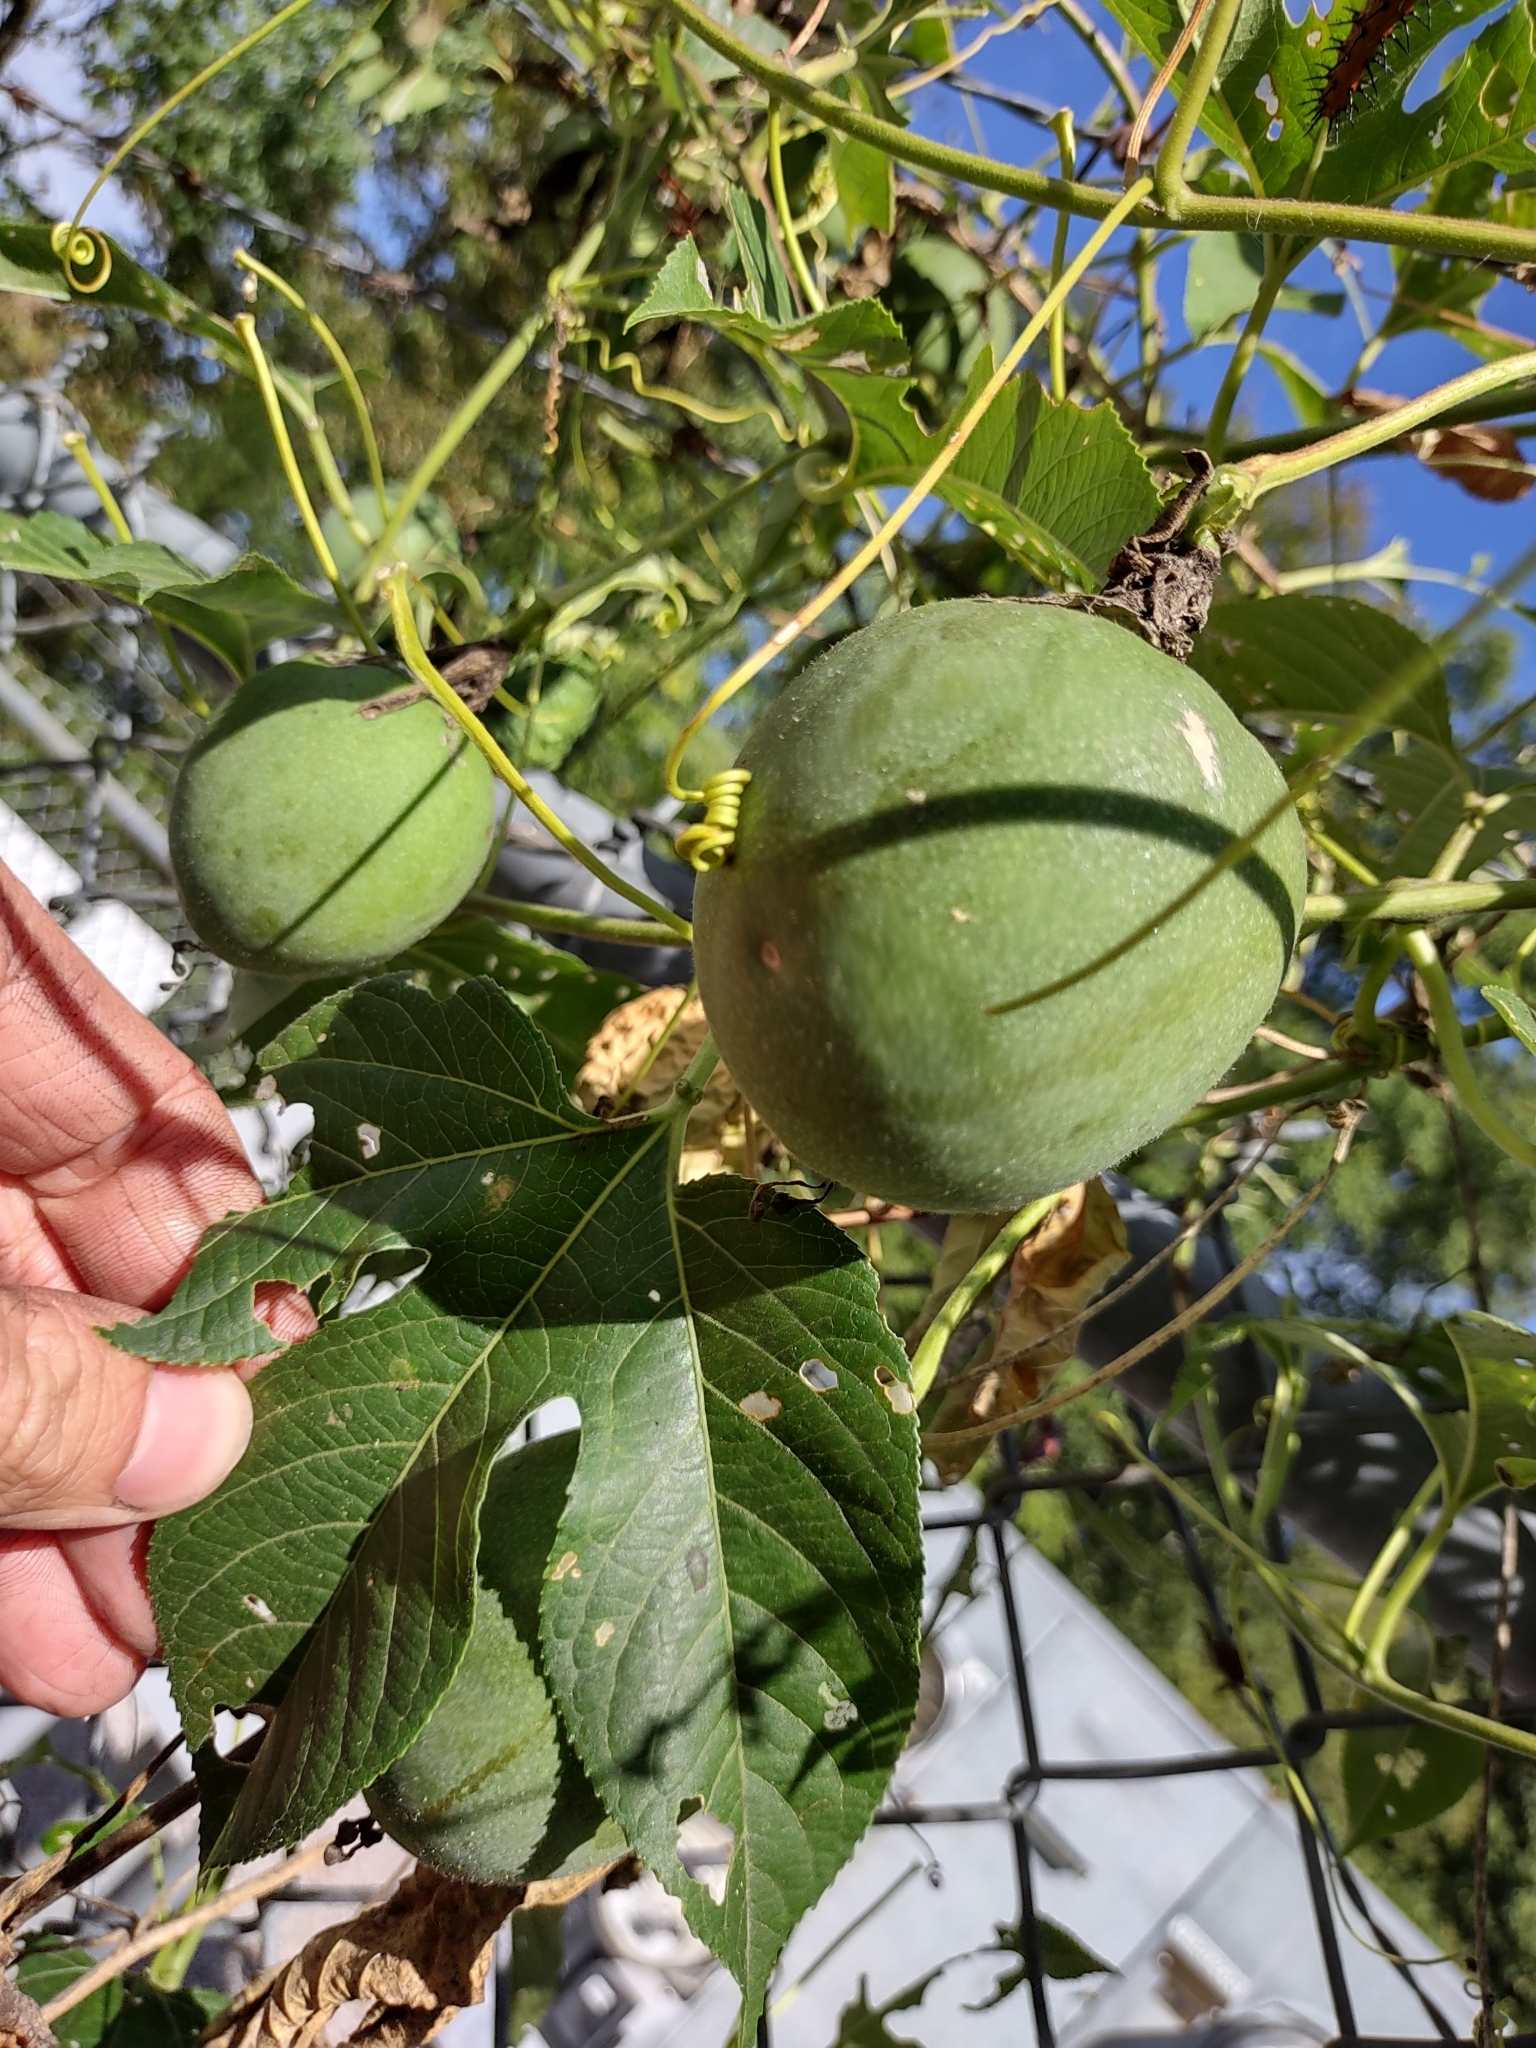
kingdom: Plantae
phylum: Tracheophyta
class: Magnoliopsida
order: Malpighiales
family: Passifloraceae
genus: Passiflora
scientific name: Passiflora incarnata
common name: Apricot-vine
